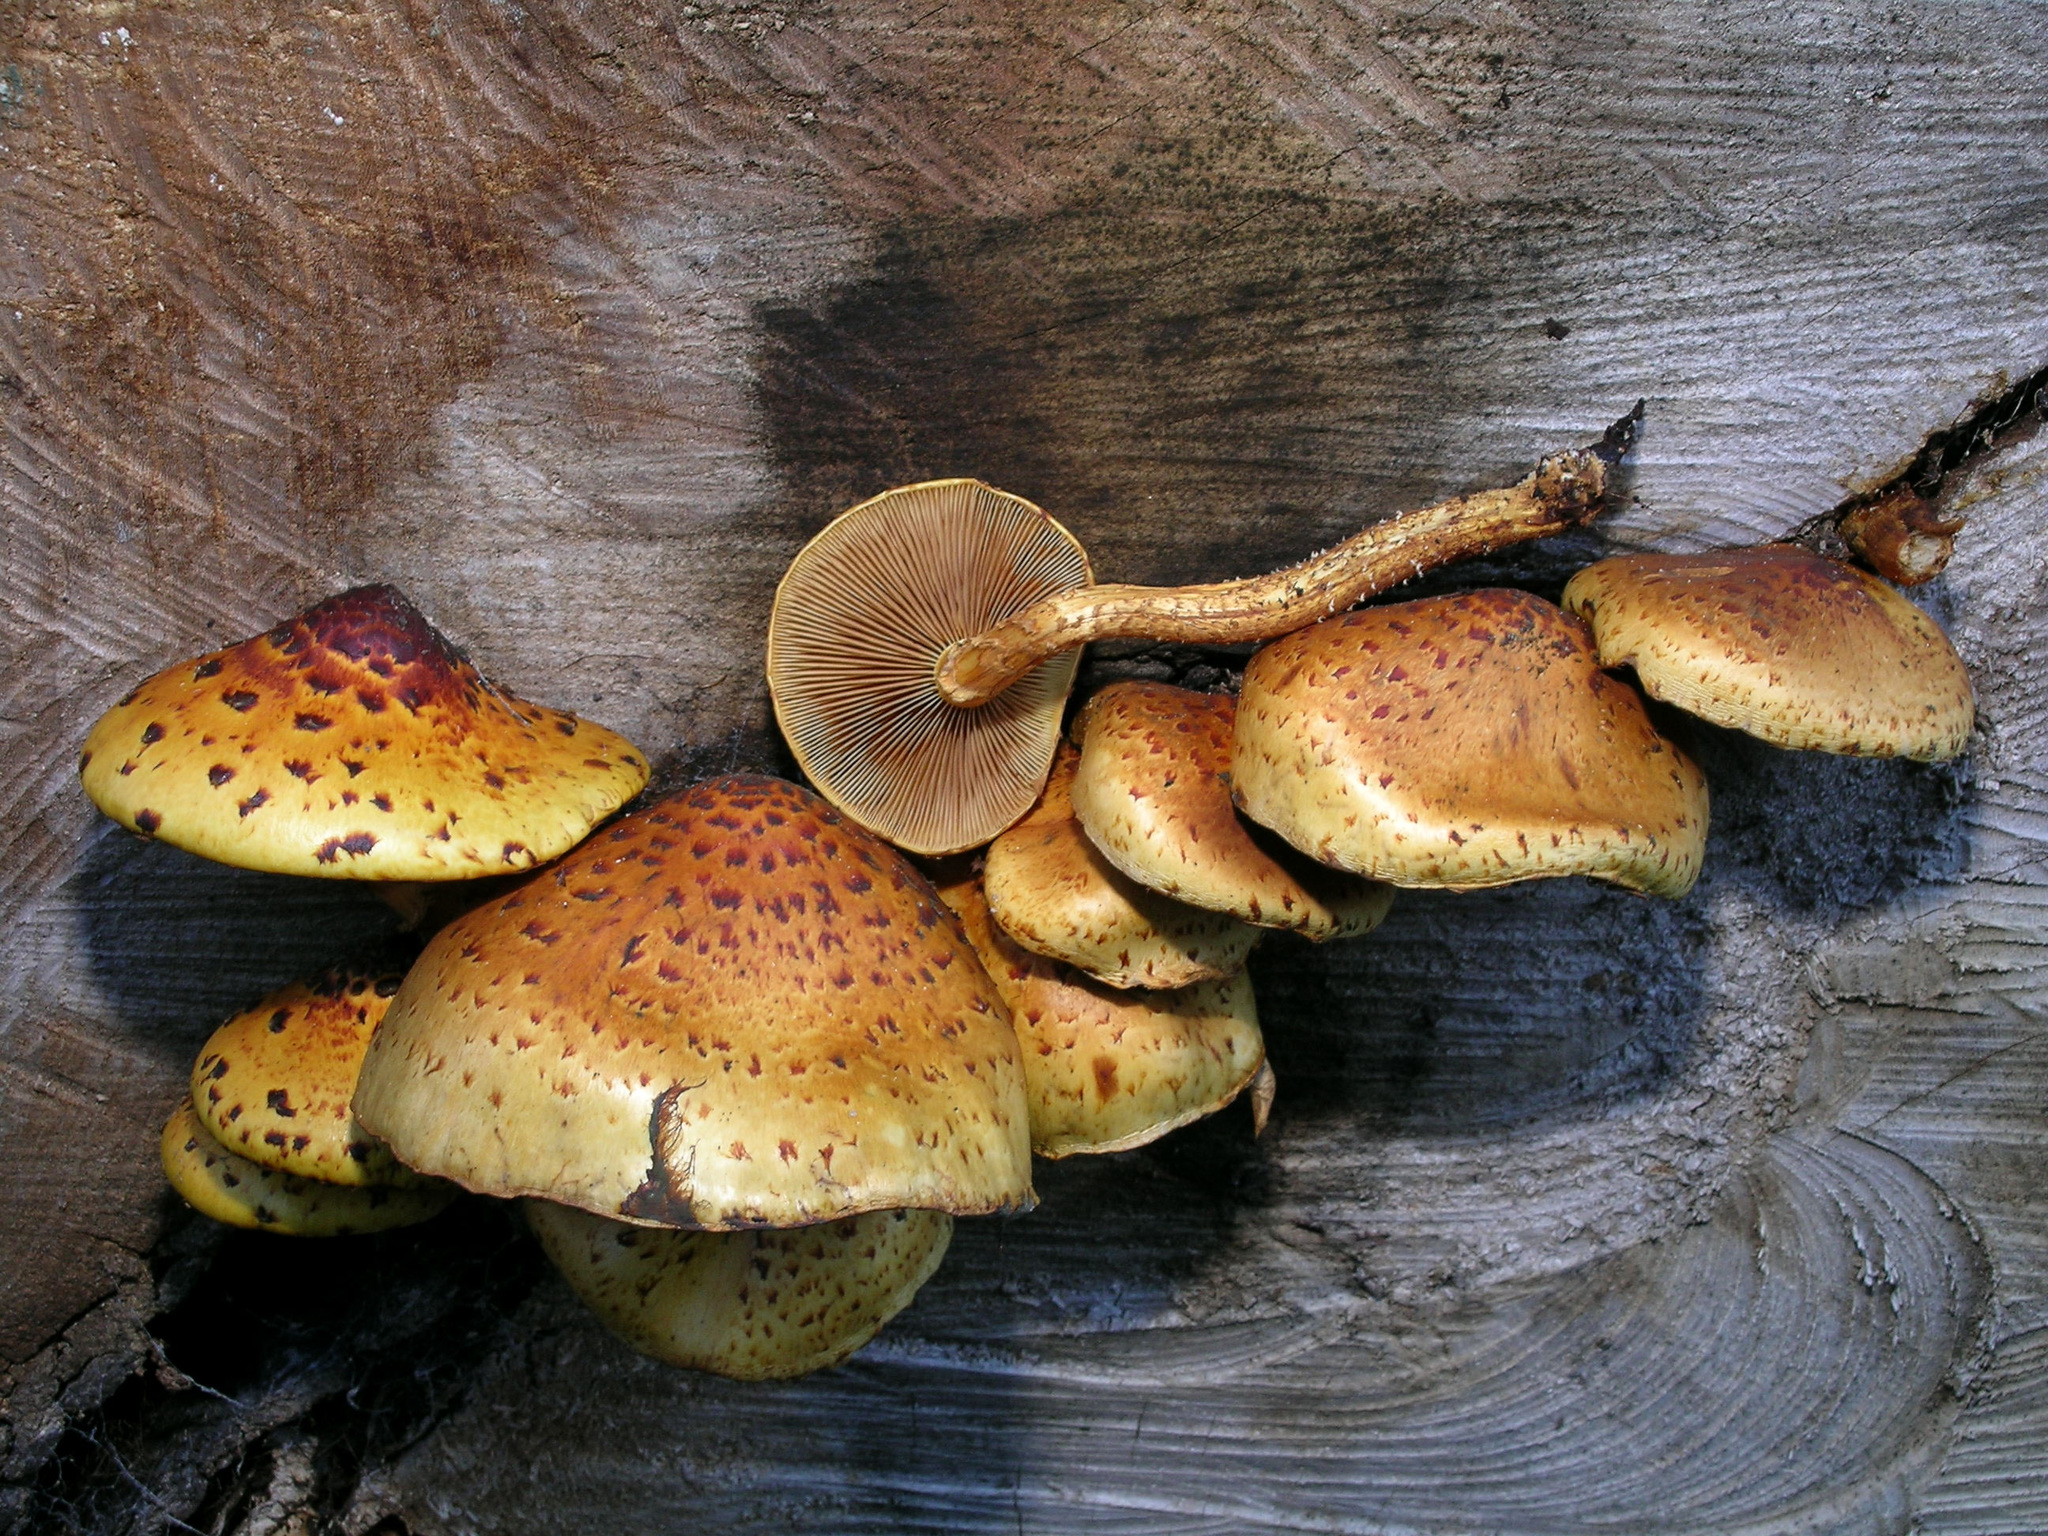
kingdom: Fungi
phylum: Basidiomycota
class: Agaricomycetes
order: Agaricales
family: Strophariaceae
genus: Pholiota
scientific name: Pholiota glutinosa
